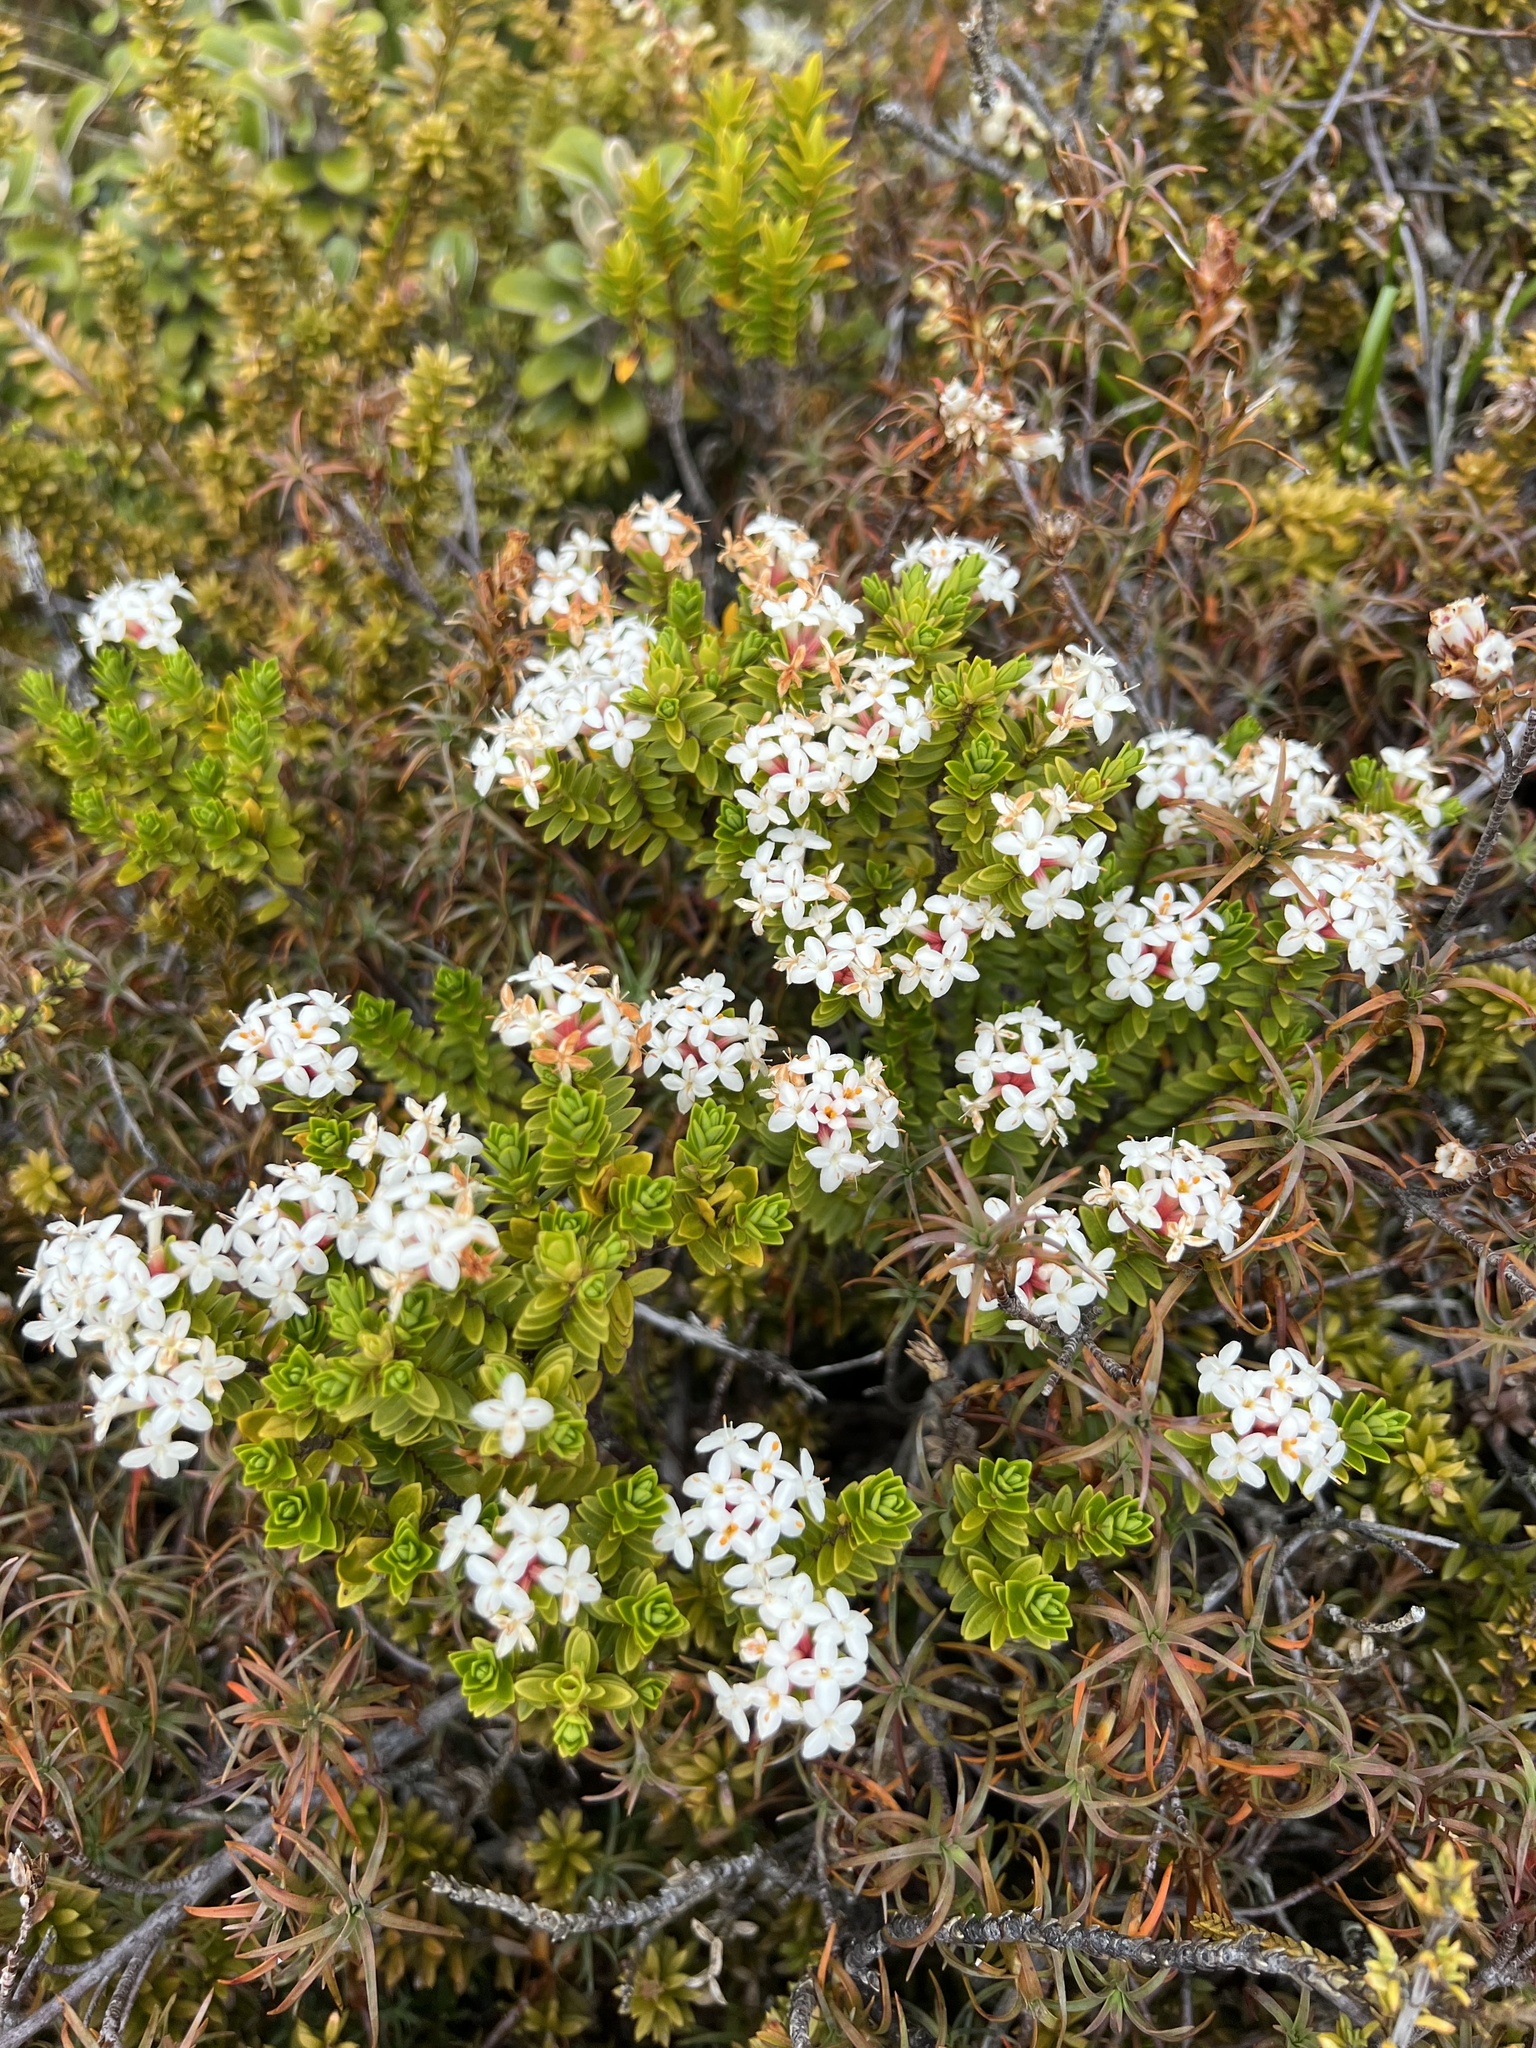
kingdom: Plantae
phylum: Tracheophyta
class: Magnoliopsida
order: Malvales
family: Thymelaeaceae
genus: Pimelea
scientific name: Pimelea buxifolia
